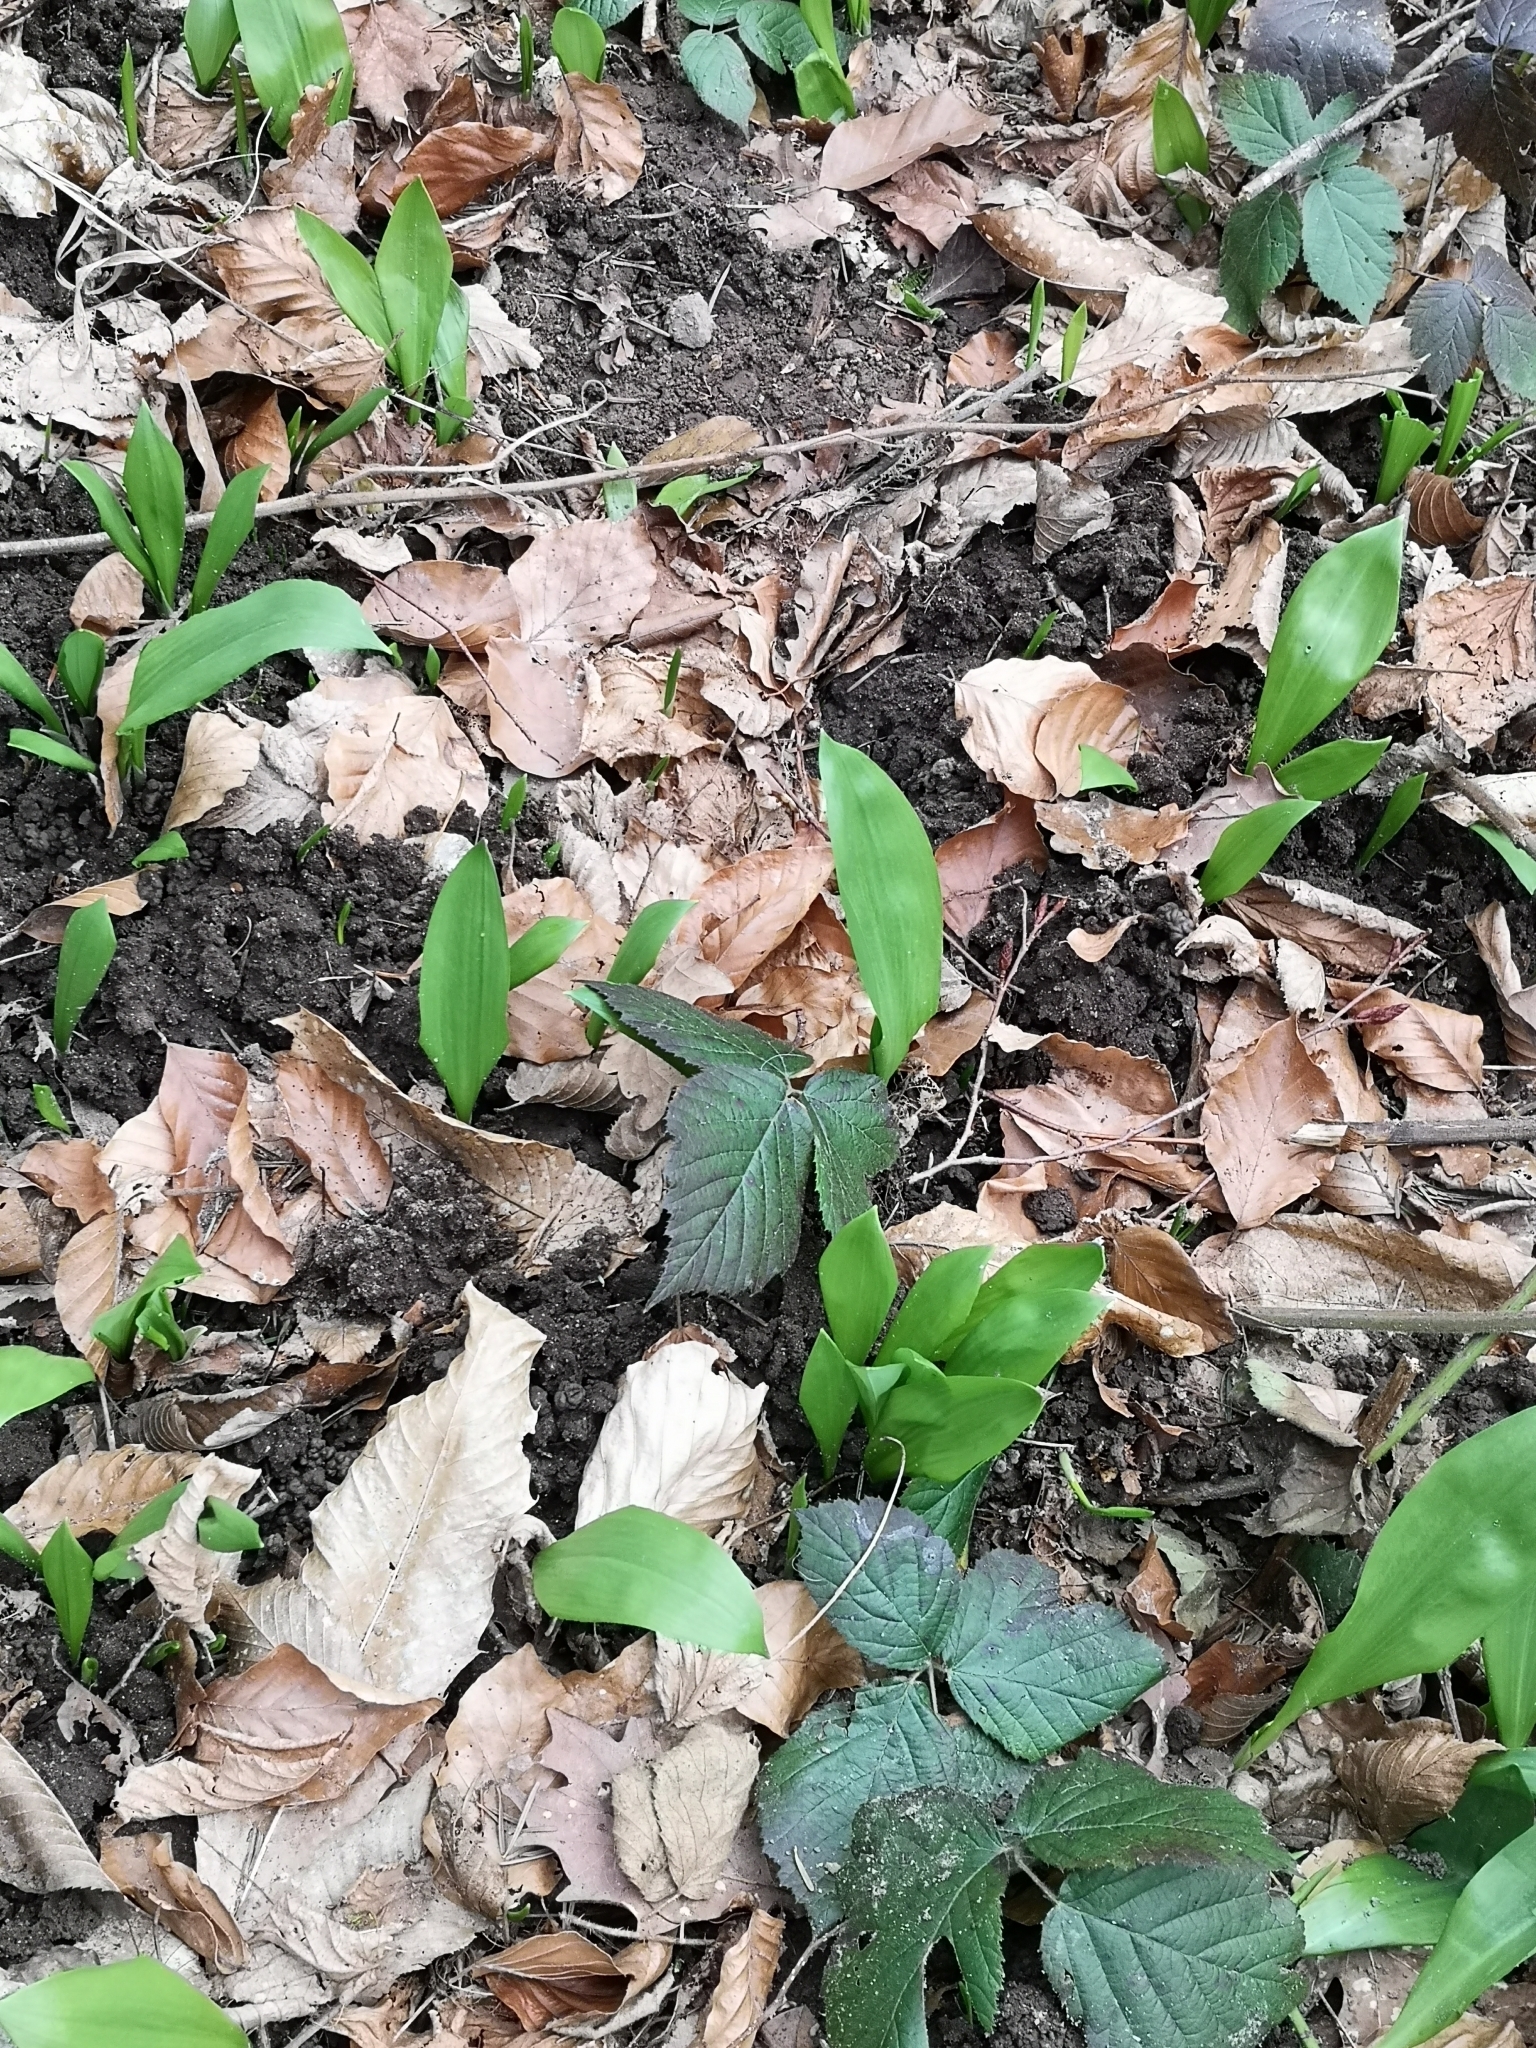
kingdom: Plantae
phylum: Tracheophyta
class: Liliopsida
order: Asparagales
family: Amaryllidaceae
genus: Allium
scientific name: Allium ursinum
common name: Ramsons
